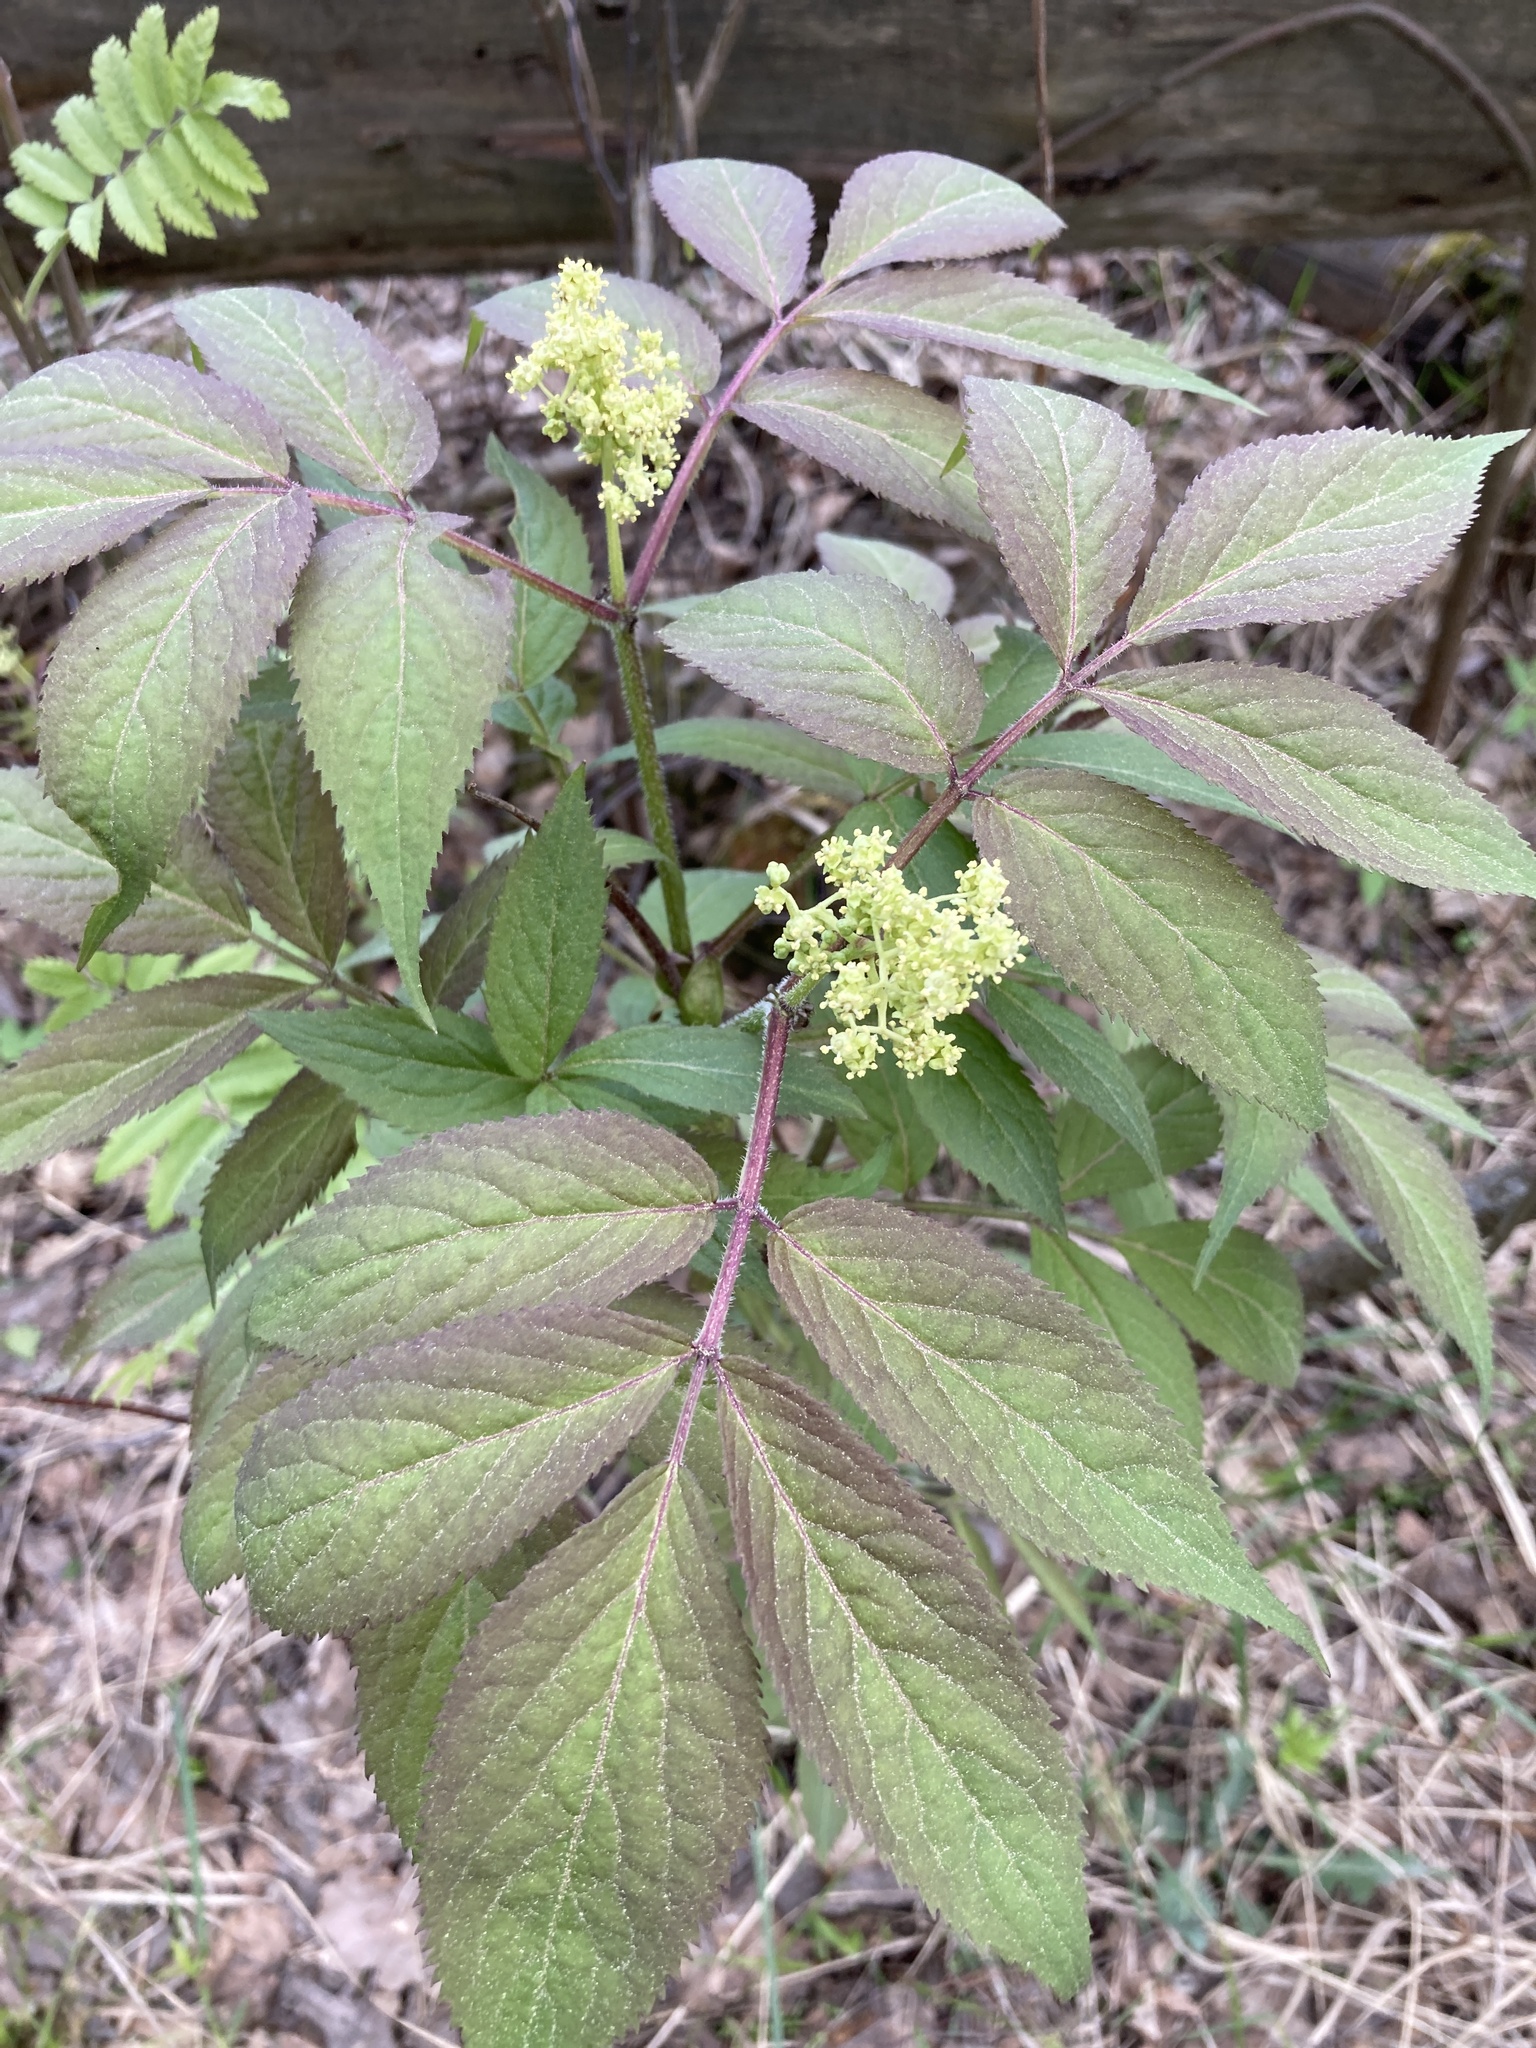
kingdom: Plantae
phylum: Tracheophyta
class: Magnoliopsida
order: Dipsacales
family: Viburnaceae
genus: Sambucus
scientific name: Sambucus racemosa
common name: Red-berried elder
